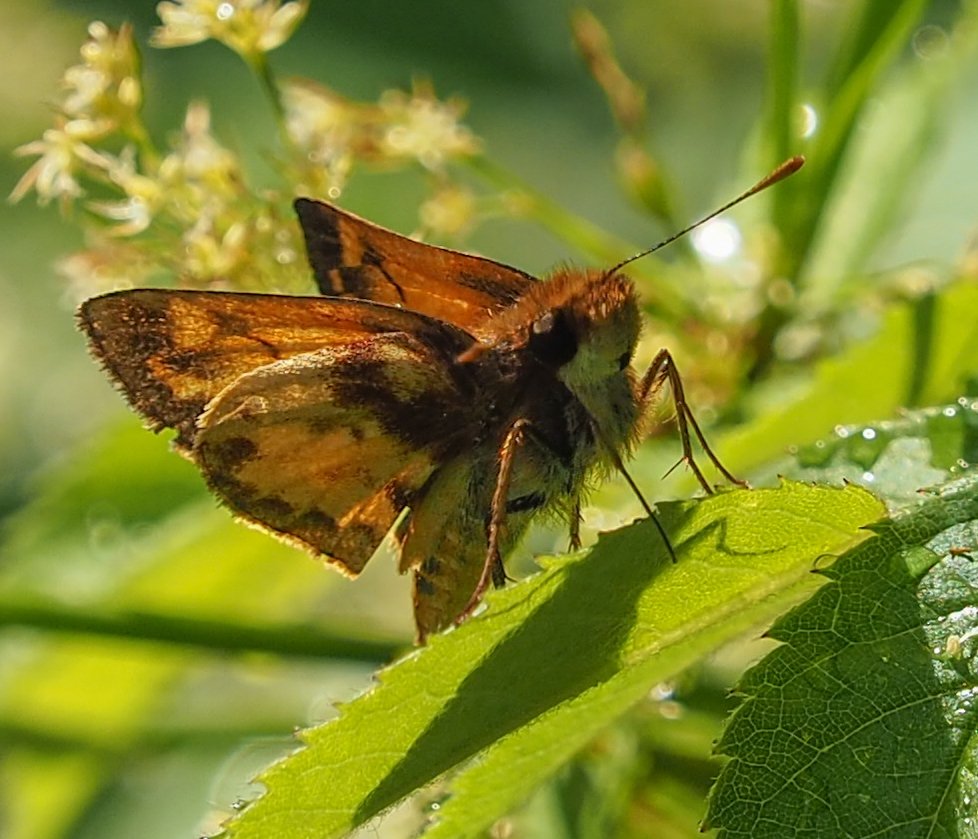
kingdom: Animalia
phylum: Arthropoda
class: Insecta
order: Lepidoptera
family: Hesperiidae
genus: Lon
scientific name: Lon zabulon
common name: Zabulon skipper
